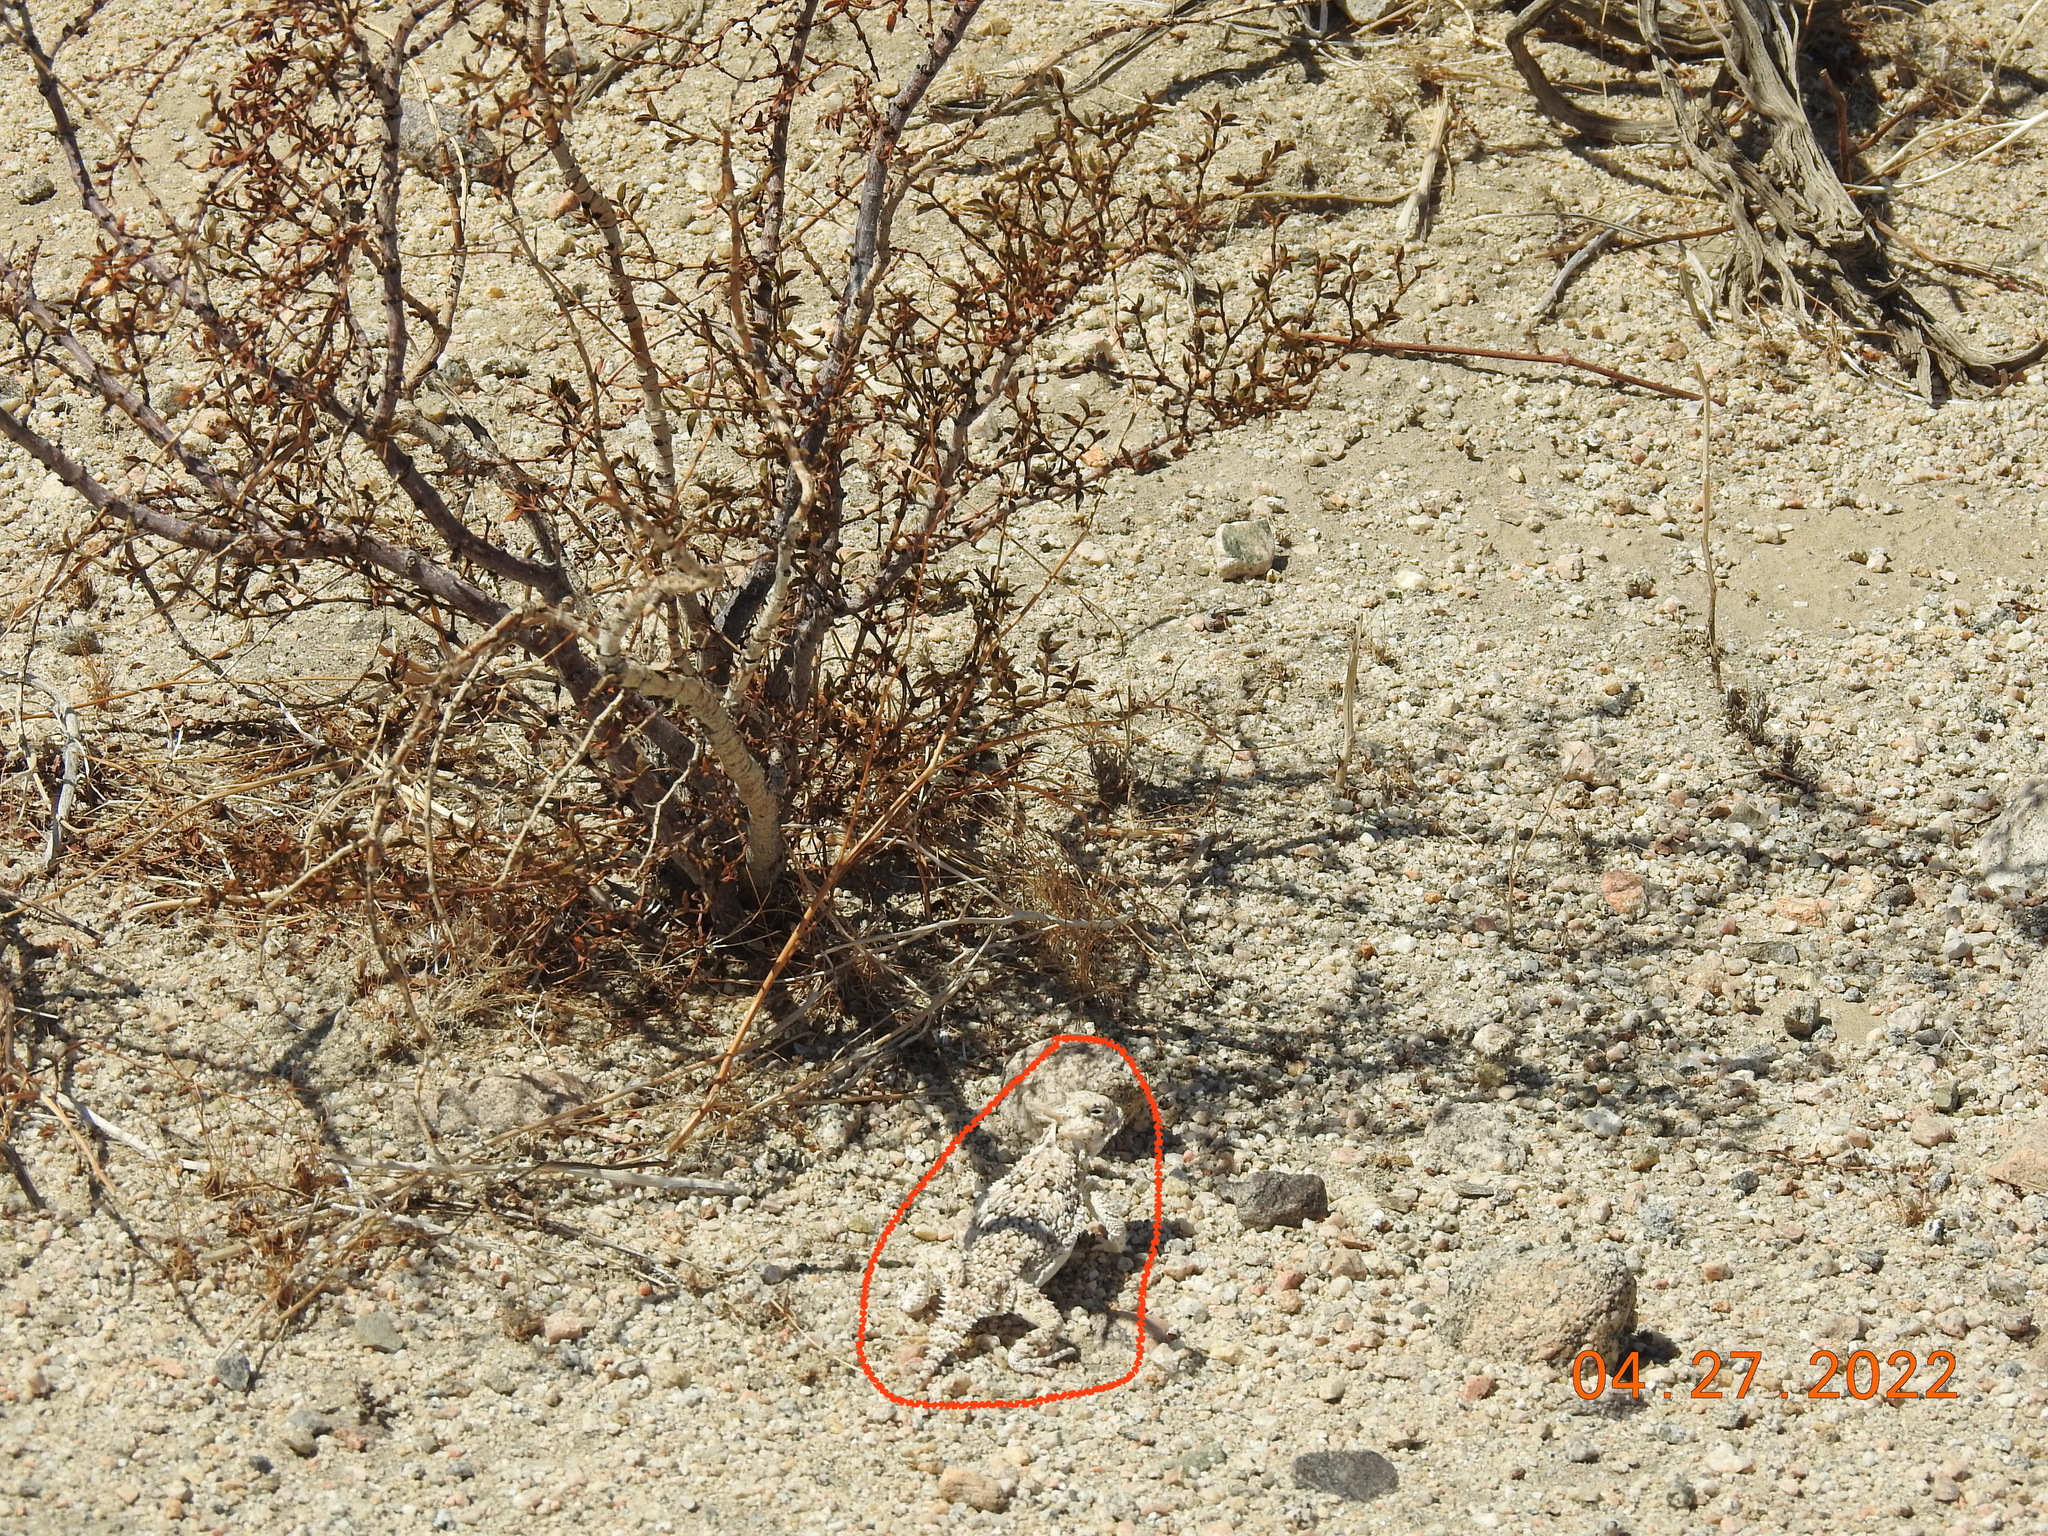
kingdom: Animalia
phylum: Chordata
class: Squamata
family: Phrynosomatidae
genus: Phrynosoma
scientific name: Phrynosoma platyrhinos
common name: Desert horned lizard
